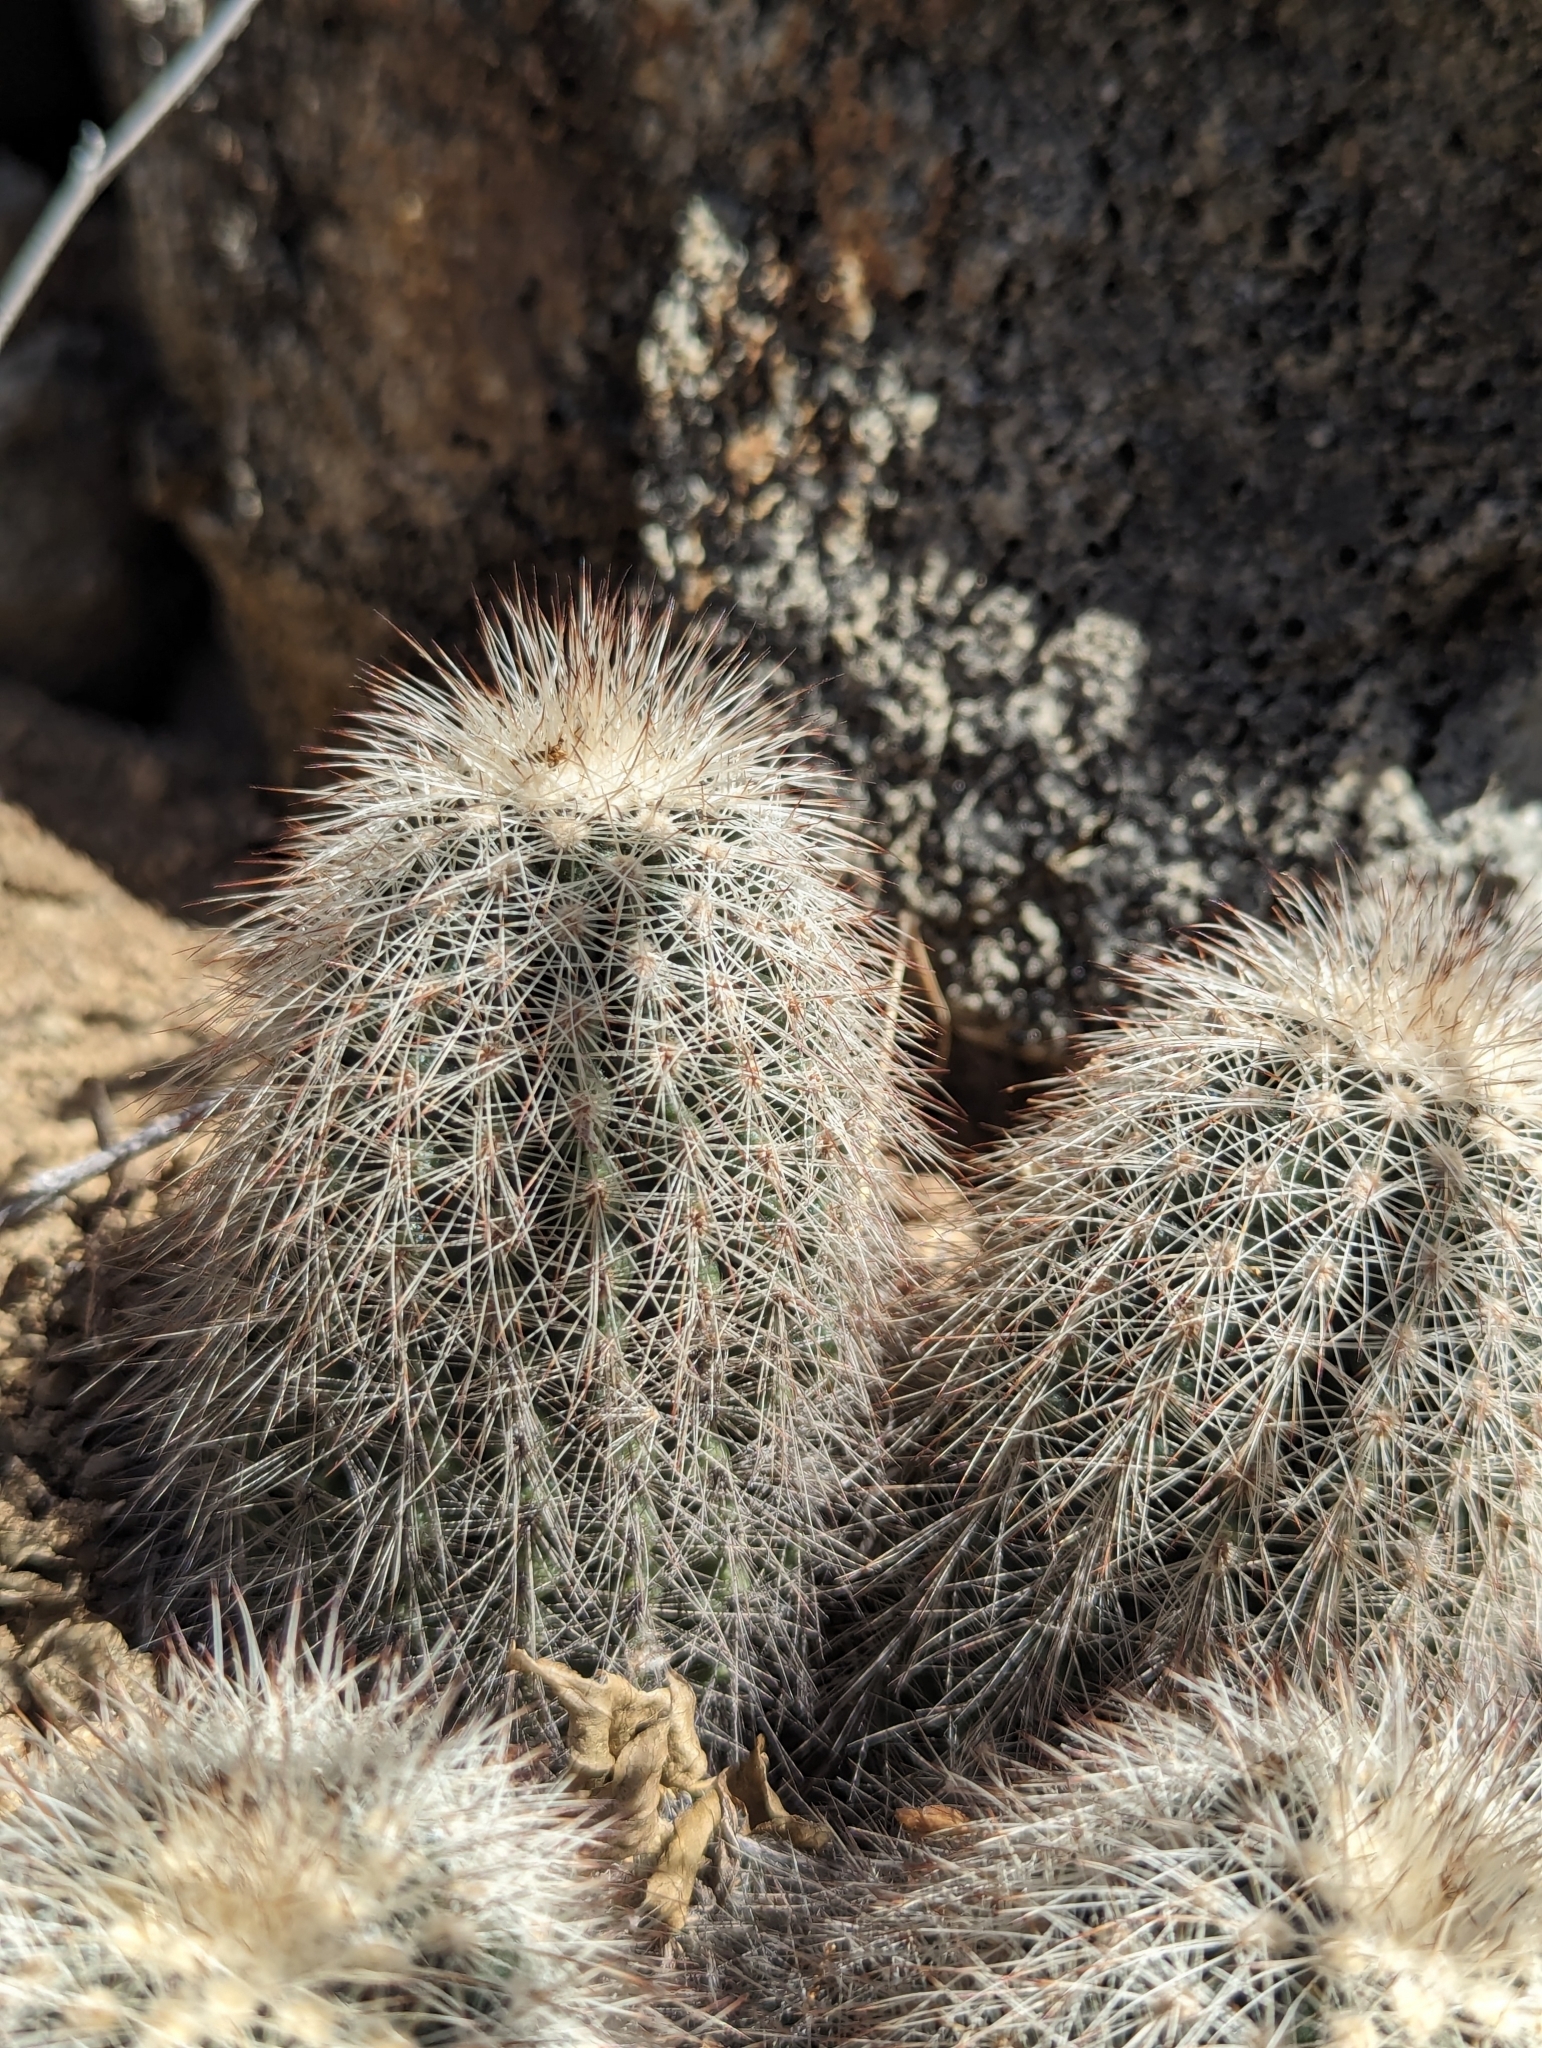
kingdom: Plantae
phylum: Tracheophyta
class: Magnoliopsida
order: Caryophyllales
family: Cactaceae
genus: Echinocereus
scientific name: Echinocereus sciurus
